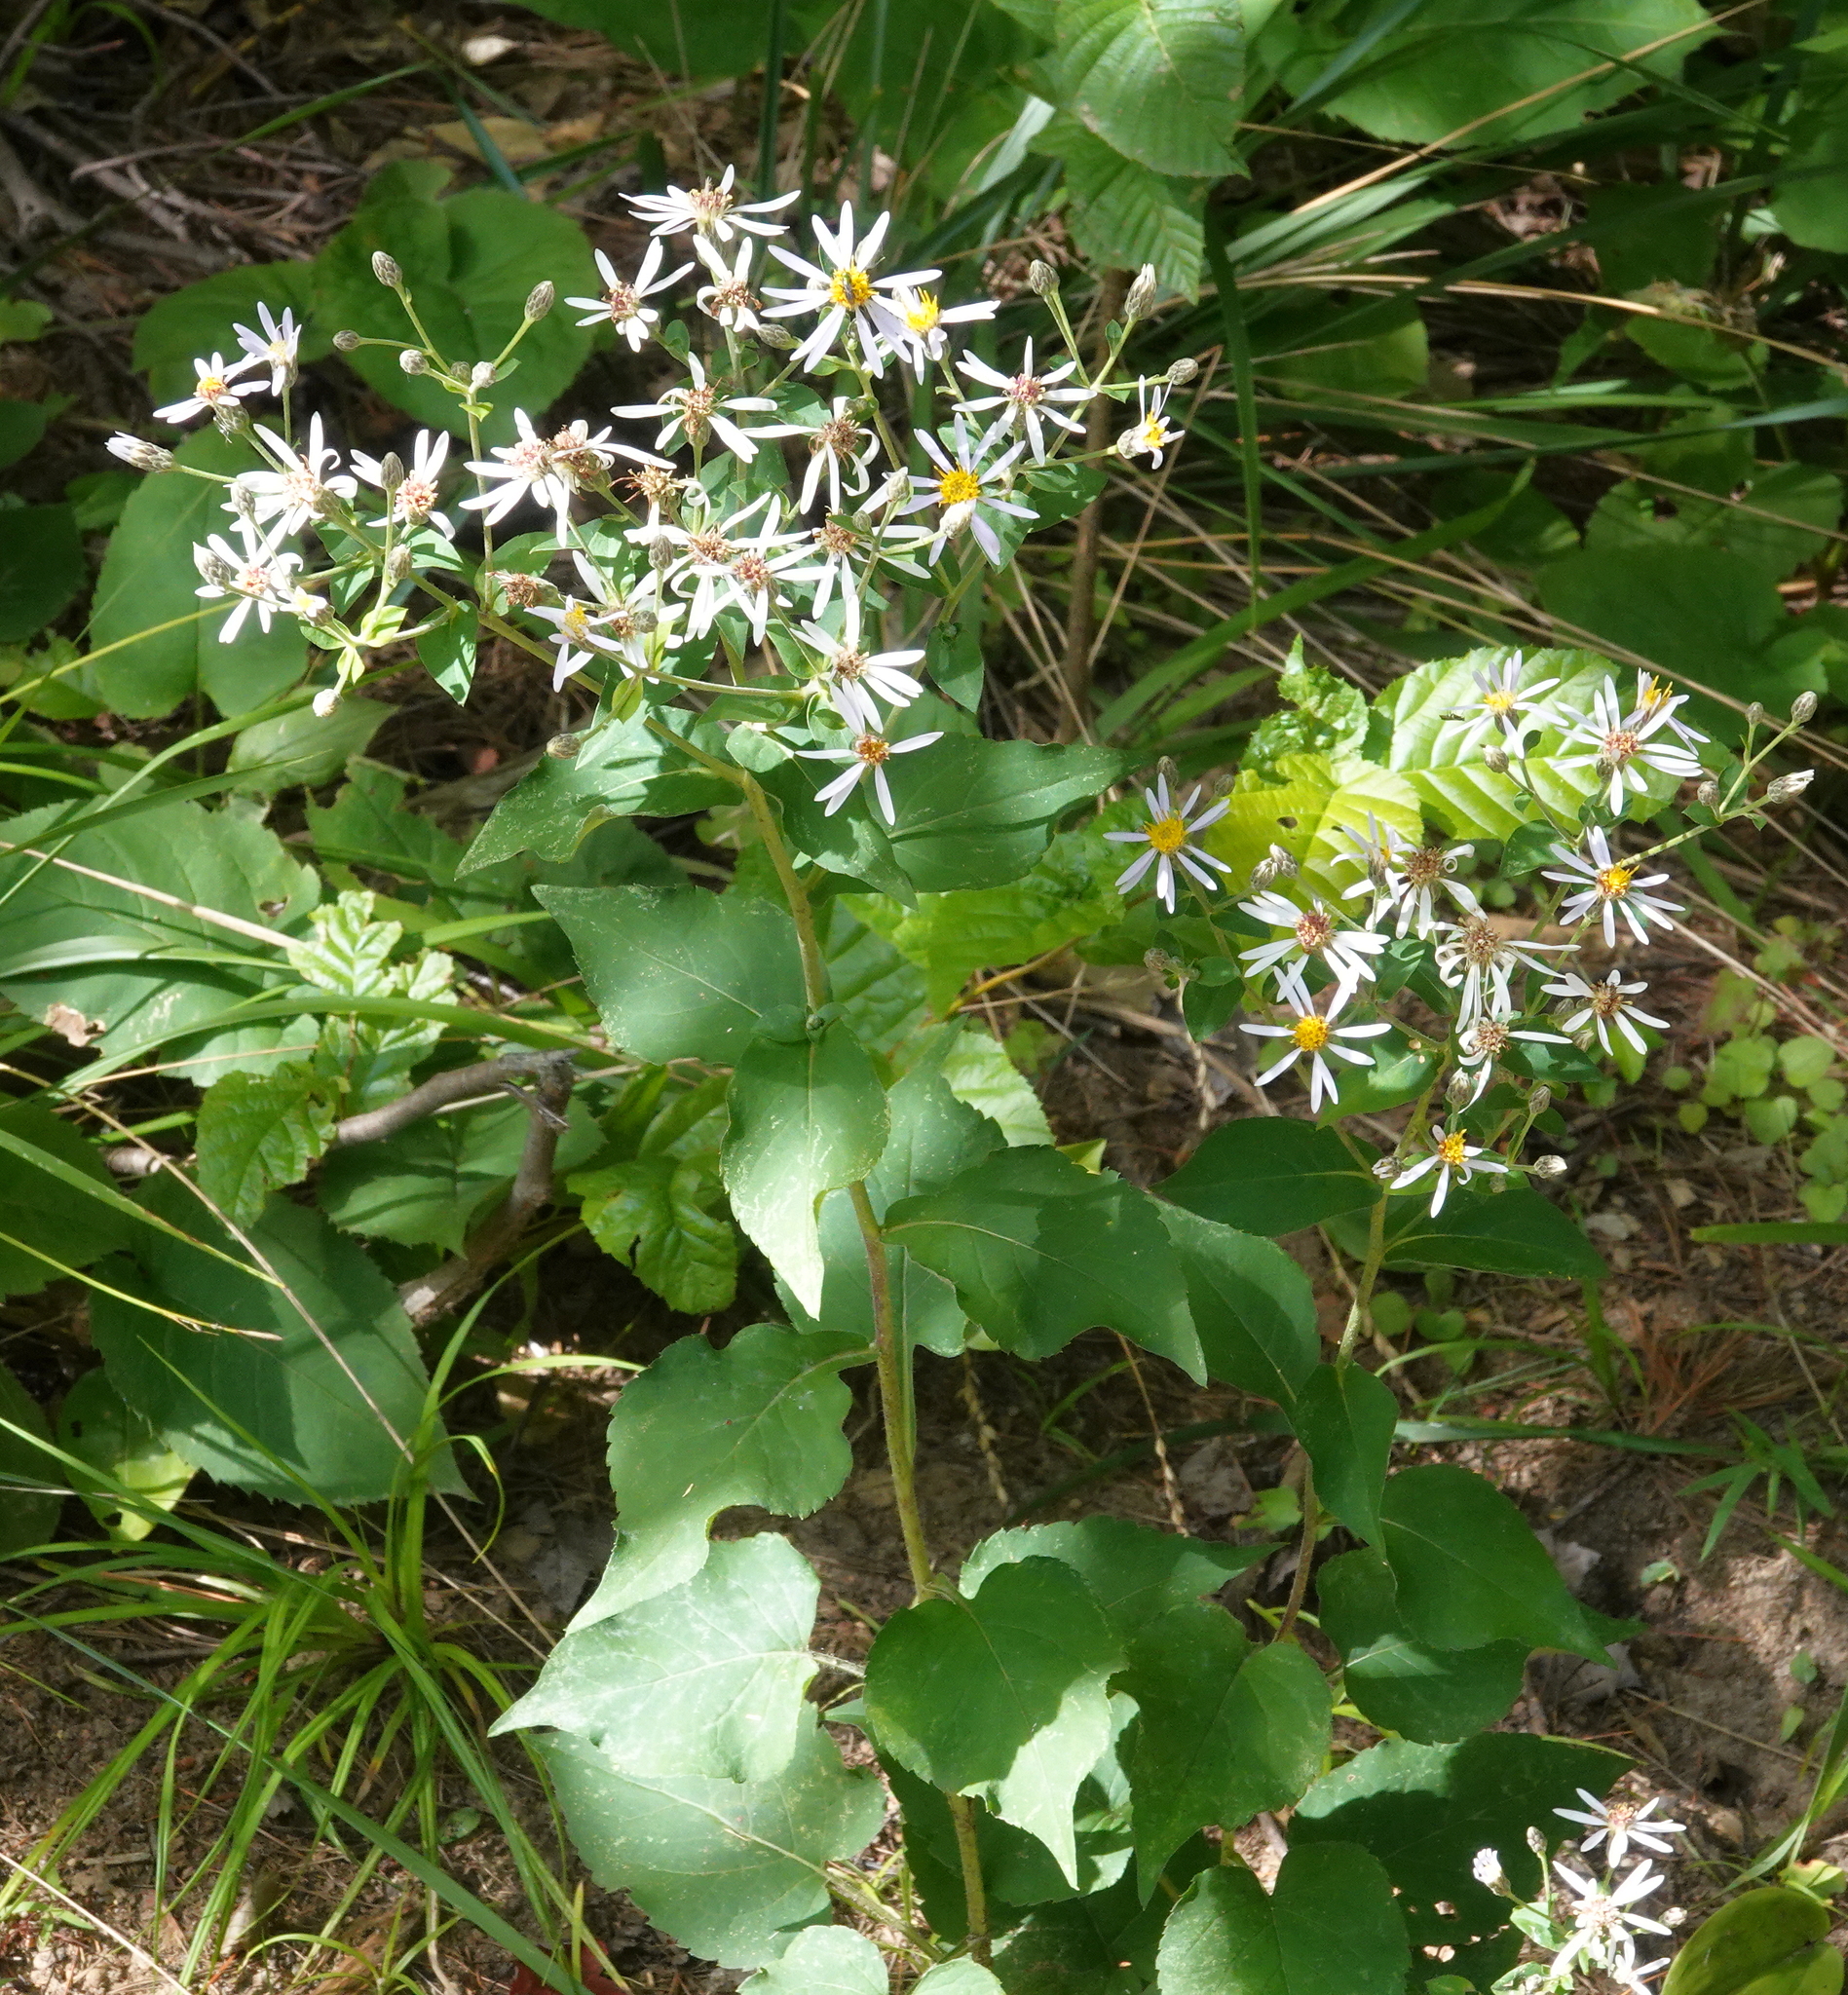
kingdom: Plantae
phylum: Tracheophyta
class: Magnoliopsida
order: Asterales
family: Asteraceae
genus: Eurybia
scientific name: Eurybia macrophylla
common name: Big-leaved aster
